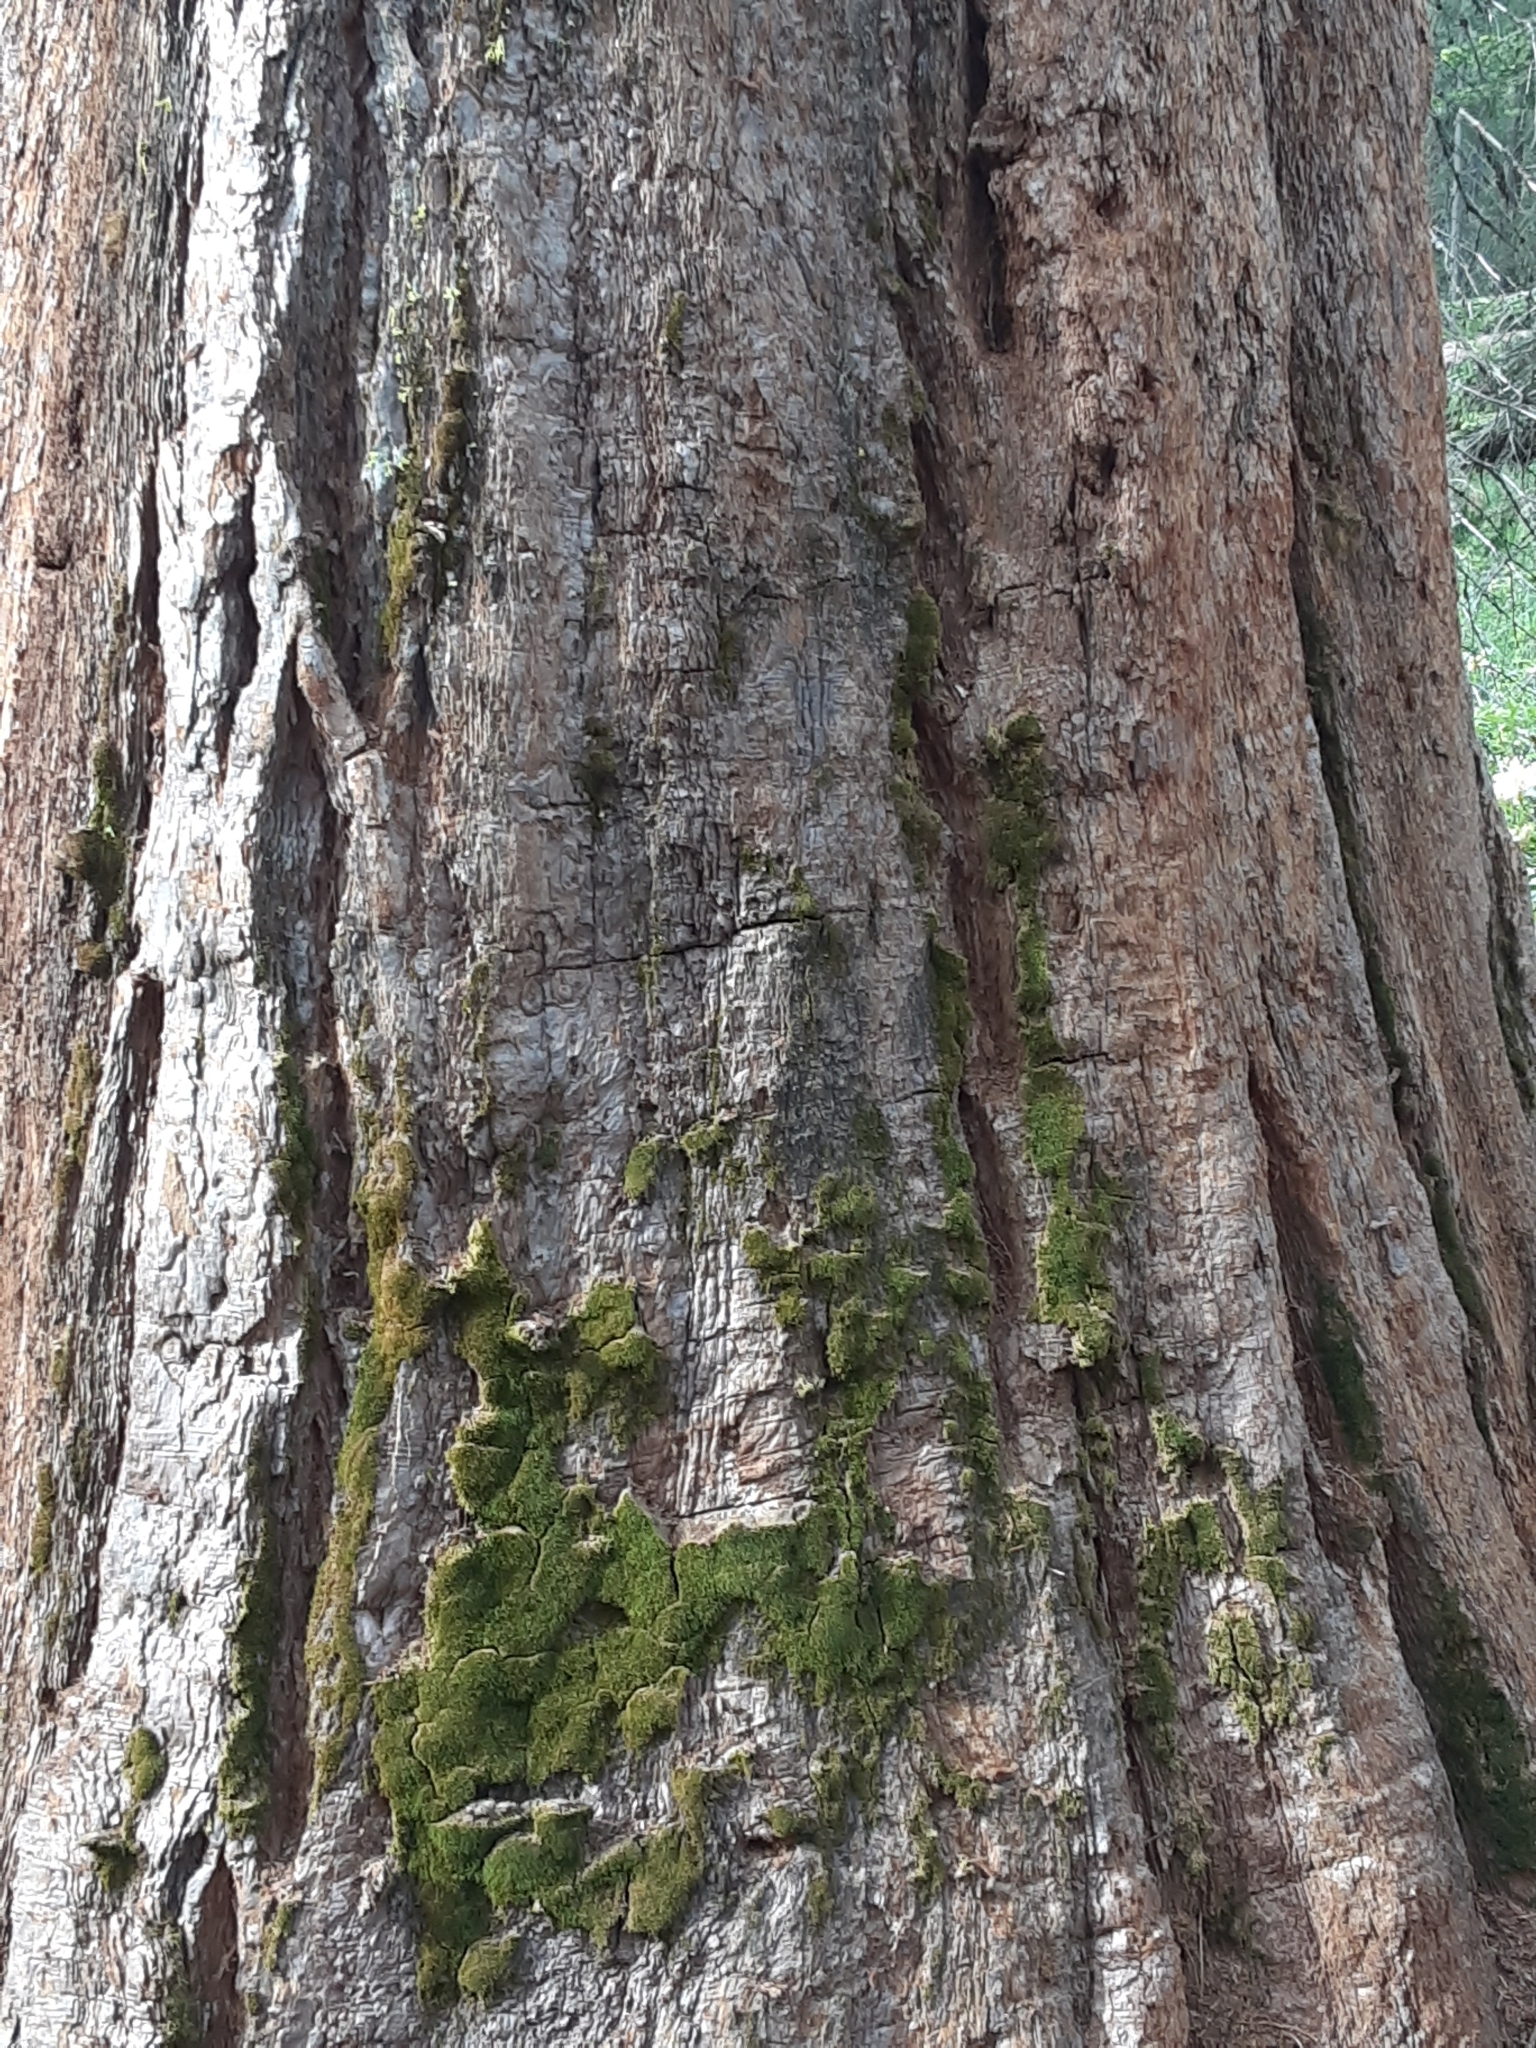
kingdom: Plantae
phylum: Tracheophyta
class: Pinopsida
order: Pinales
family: Cupressaceae
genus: Sequoiadendron
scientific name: Sequoiadendron giganteum
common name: Wellingtonia
